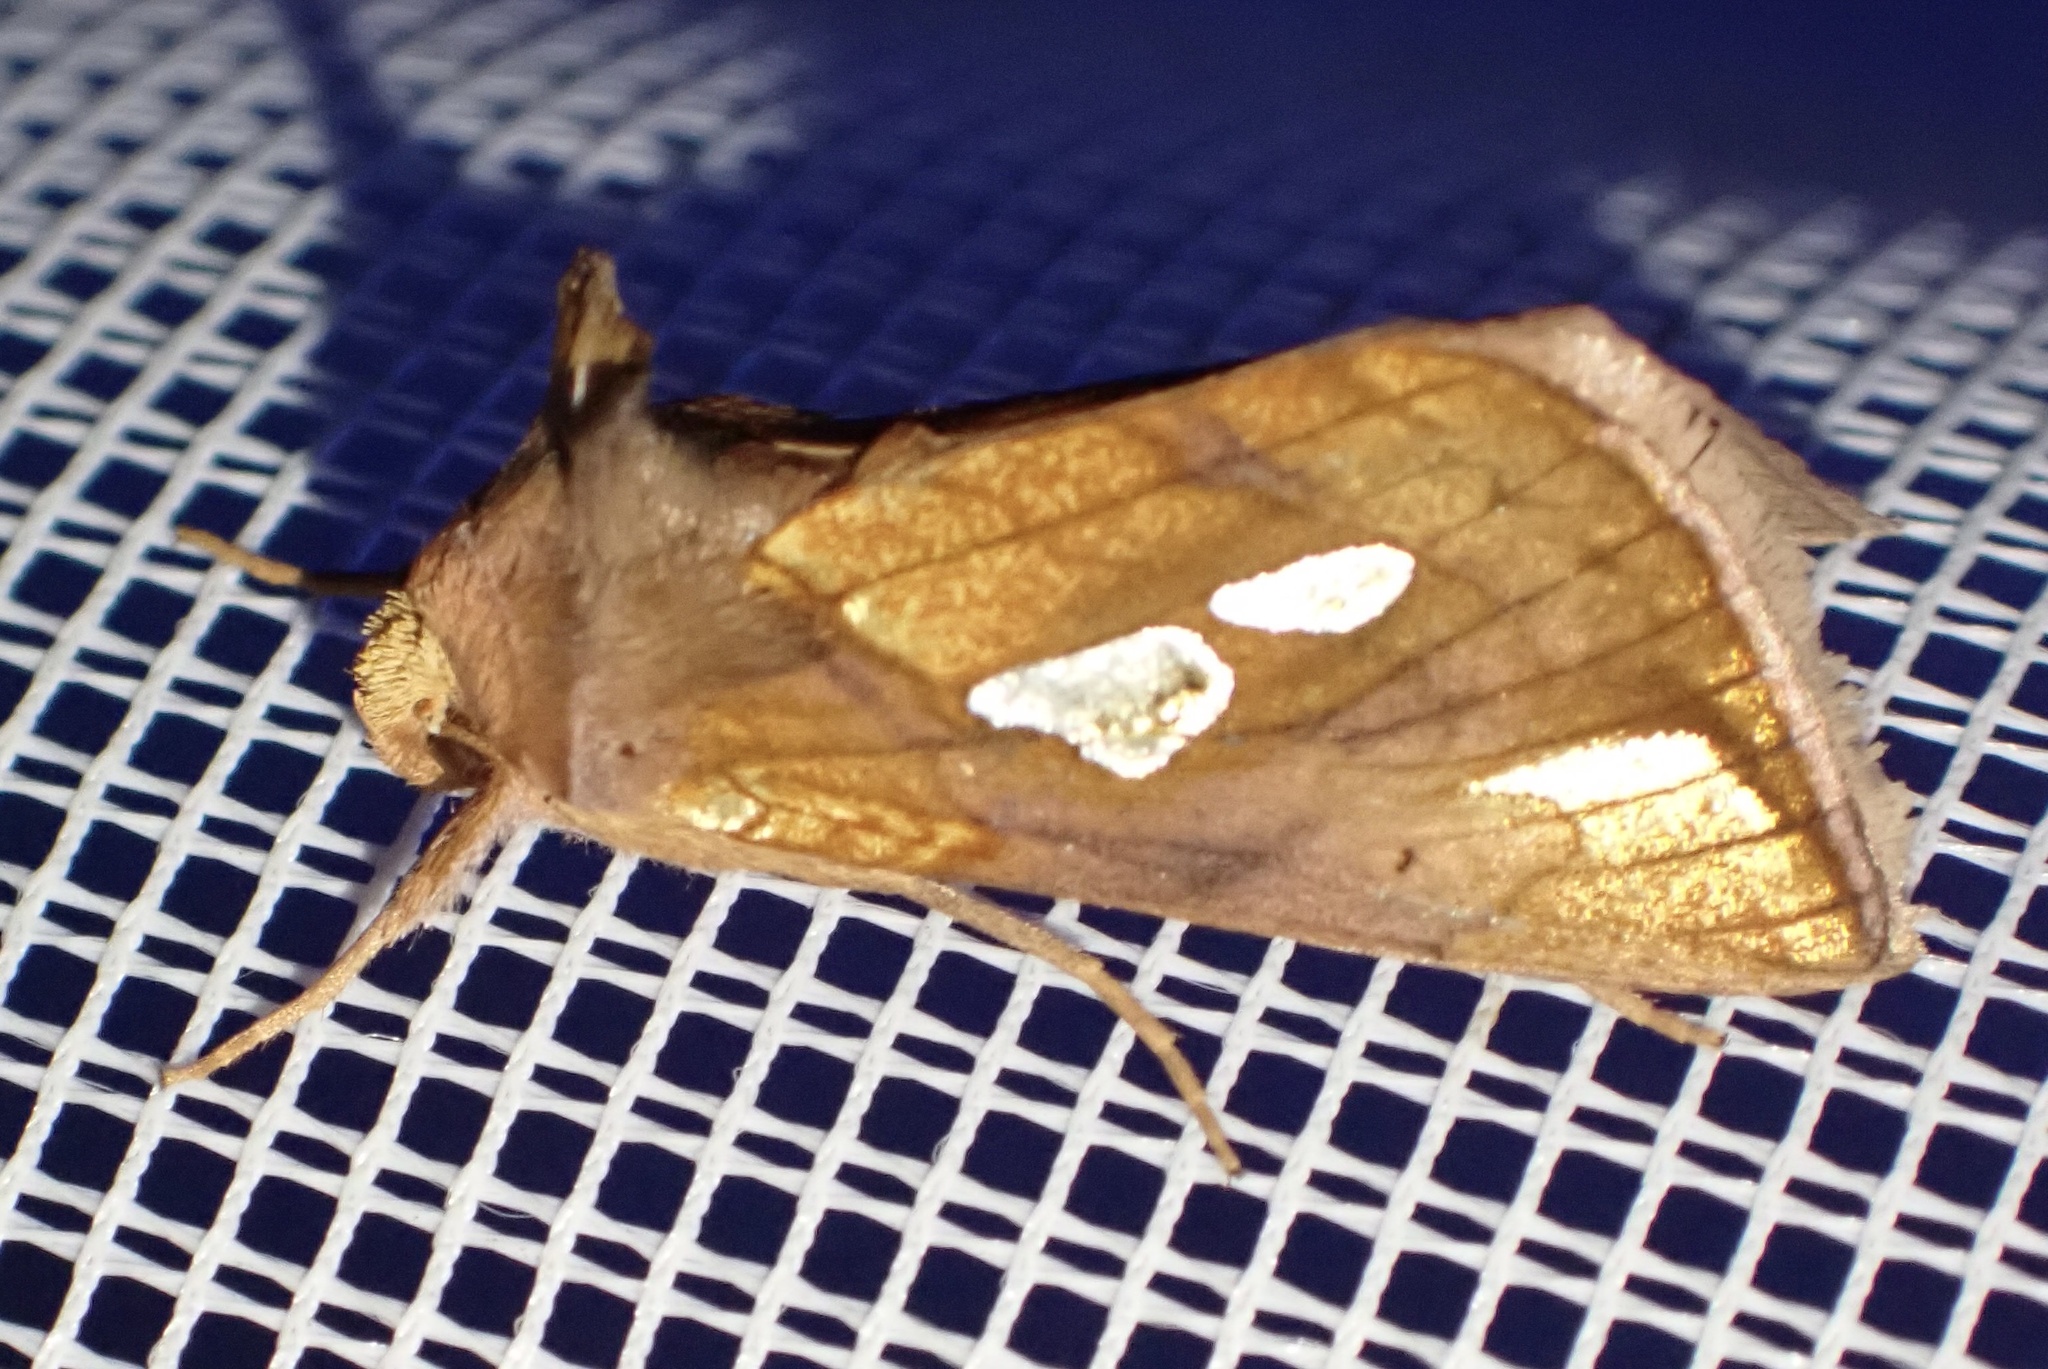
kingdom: Animalia
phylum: Arthropoda
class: Insecta
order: Lepidoptera
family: Noctuidae
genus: Plusia
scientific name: Plusia festucae
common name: Gold spot
